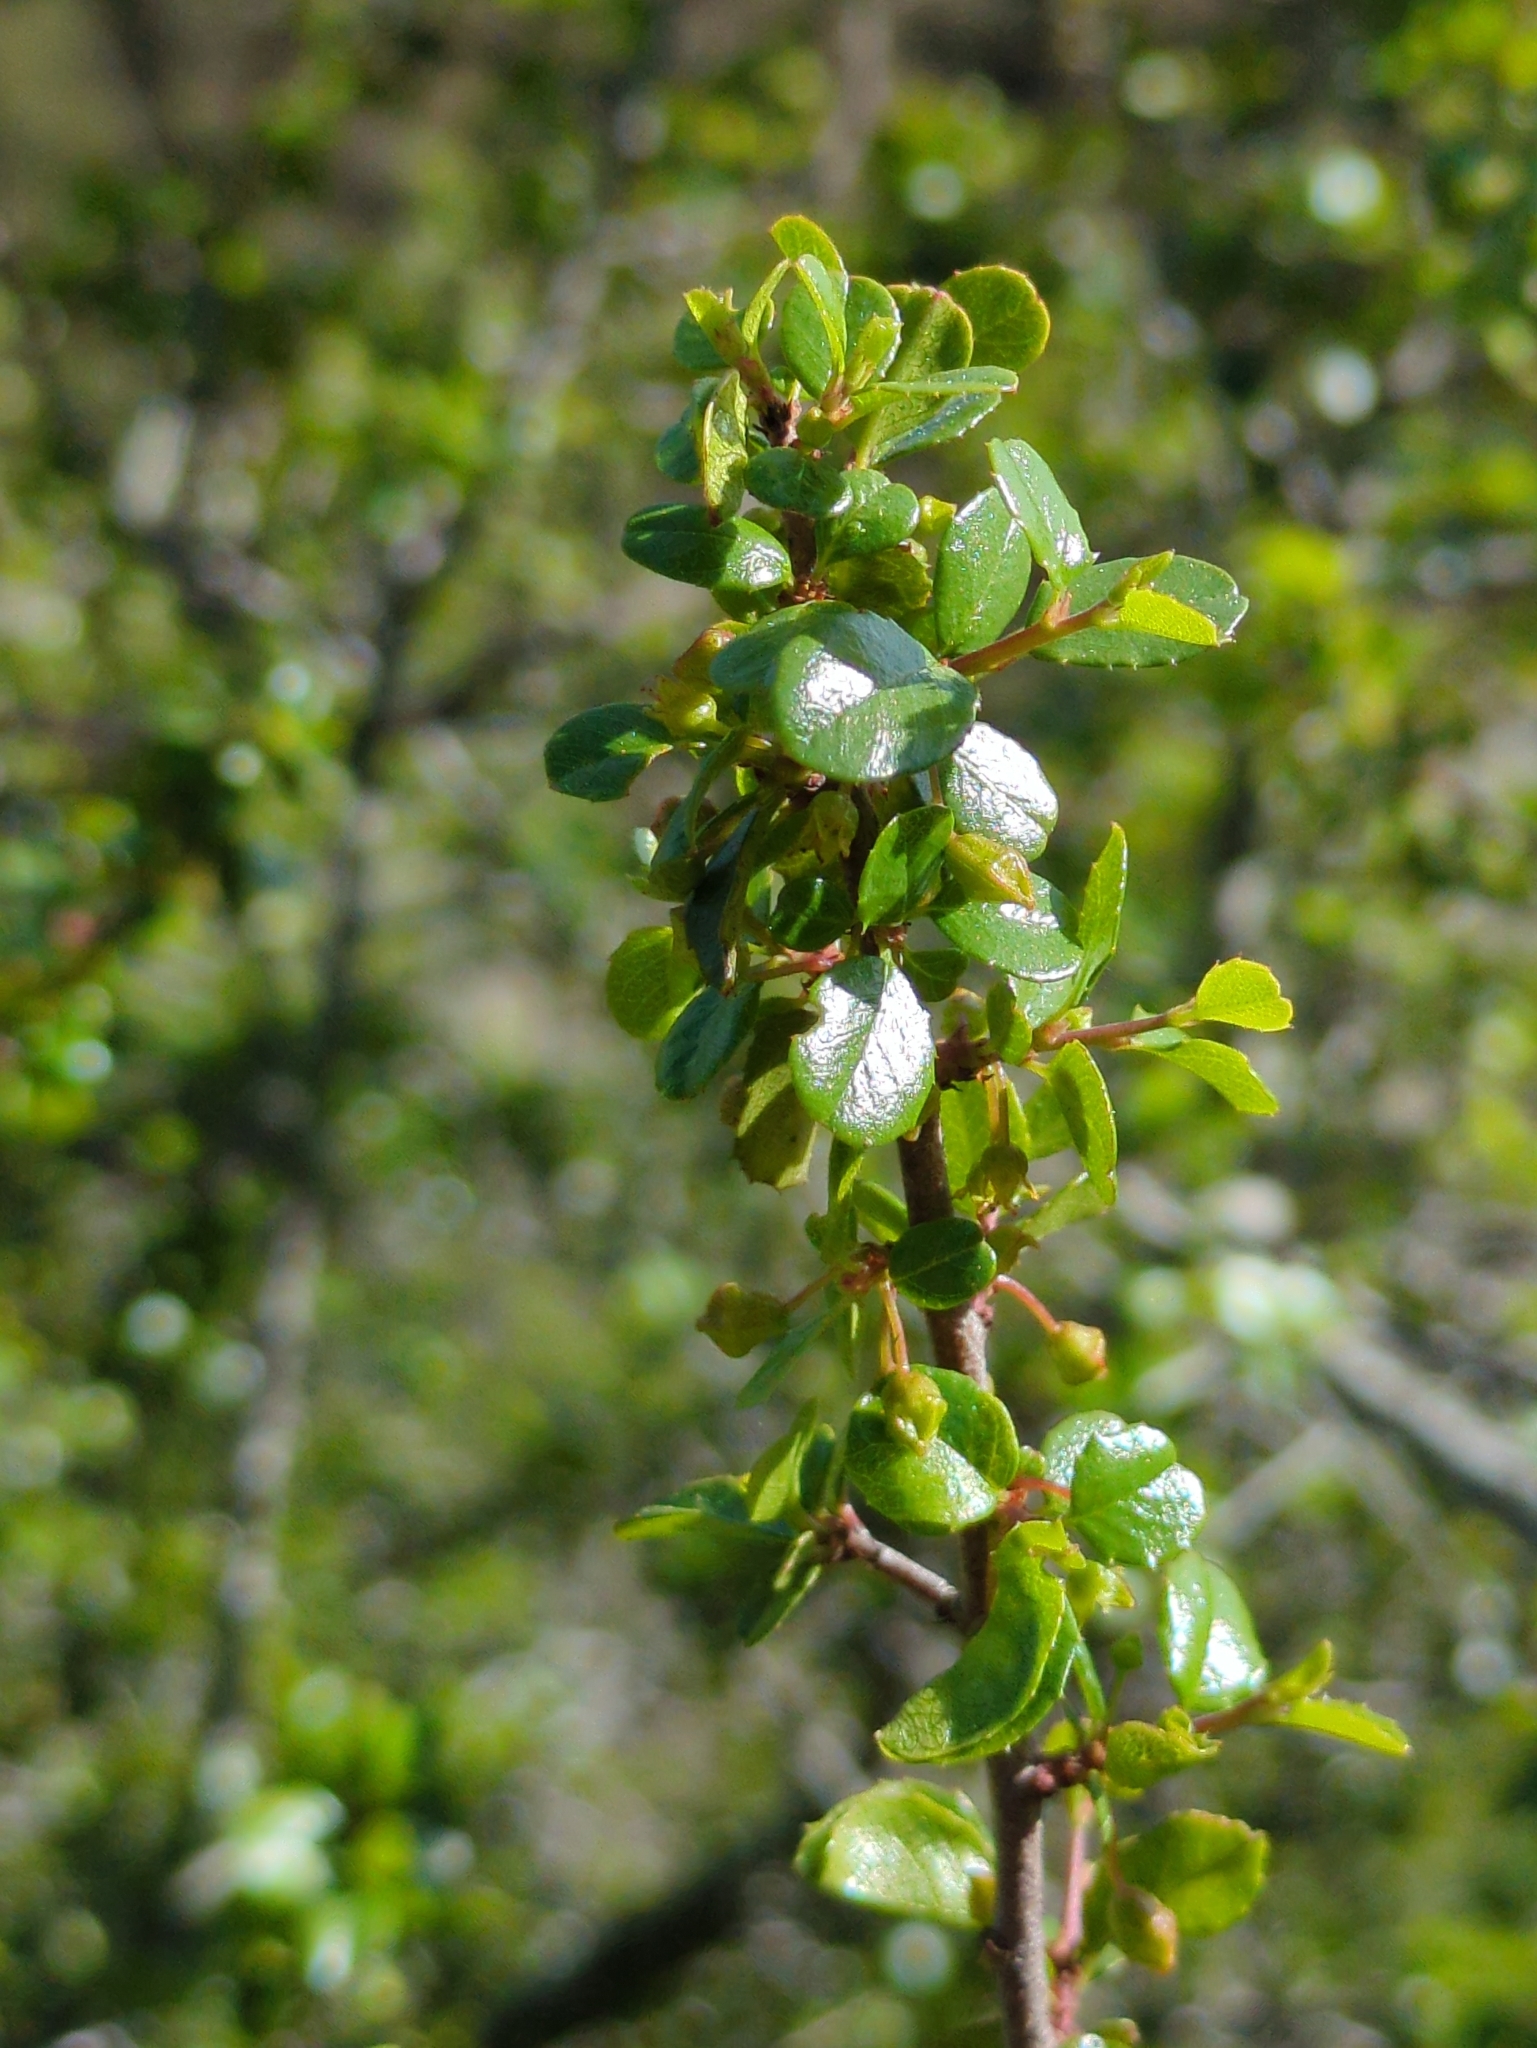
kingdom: Plantae
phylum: Tracheophyta
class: Magnoliopsida
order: Rosales
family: Rhamnaceae
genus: Endotropis
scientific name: Endotropis crocea
